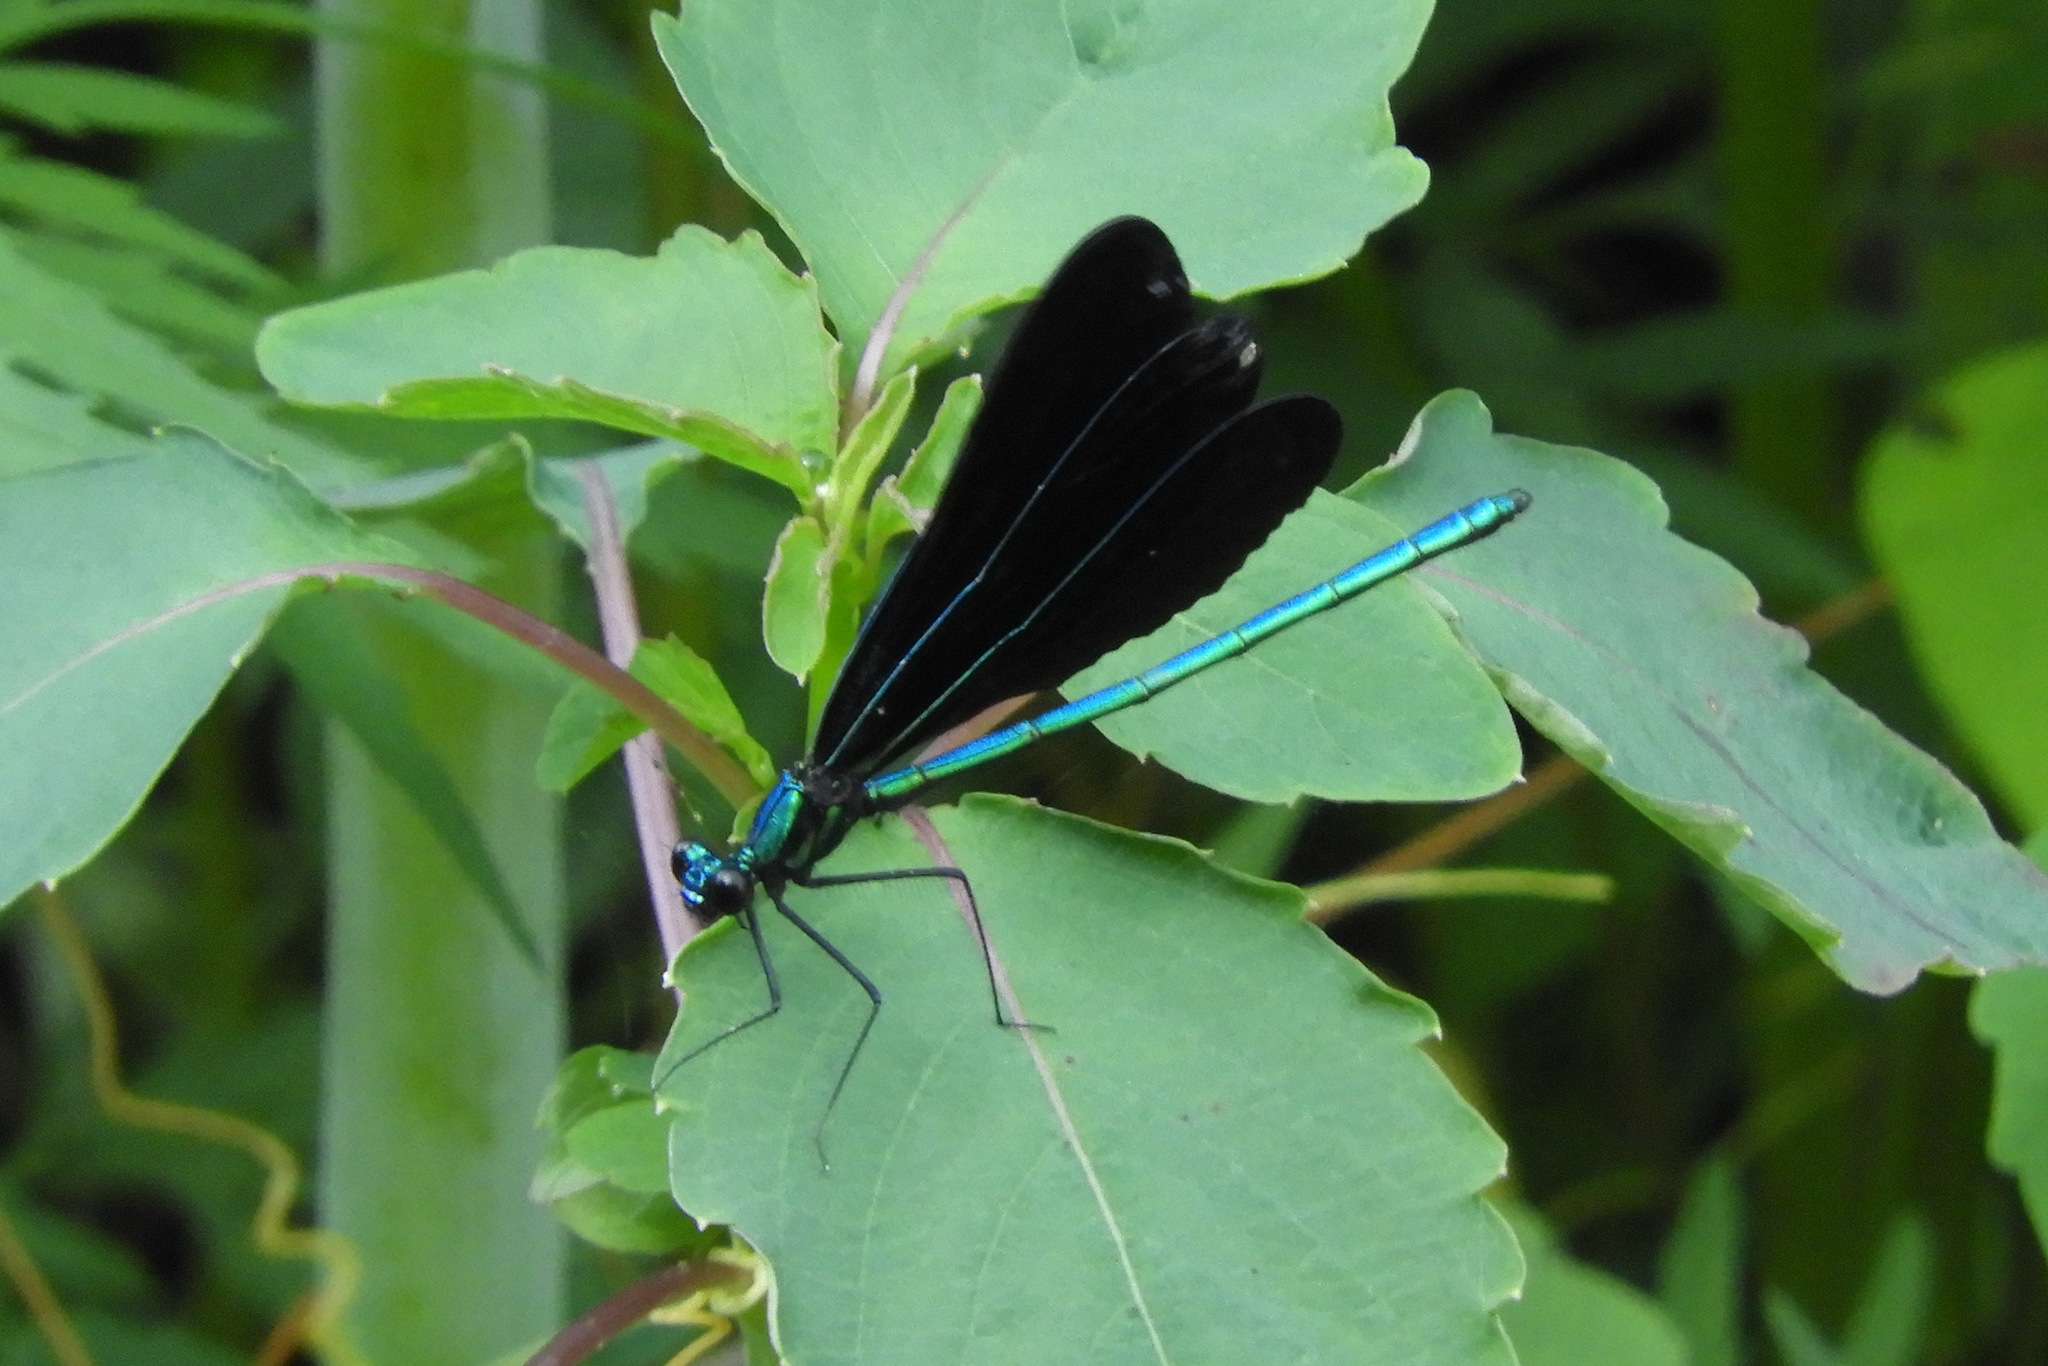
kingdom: Animalia
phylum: Arthropoda
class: Insecta
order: Odonata
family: Calopterygidae
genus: Calopteryx
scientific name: Calopteryx maculata
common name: Ebony jewelwing
